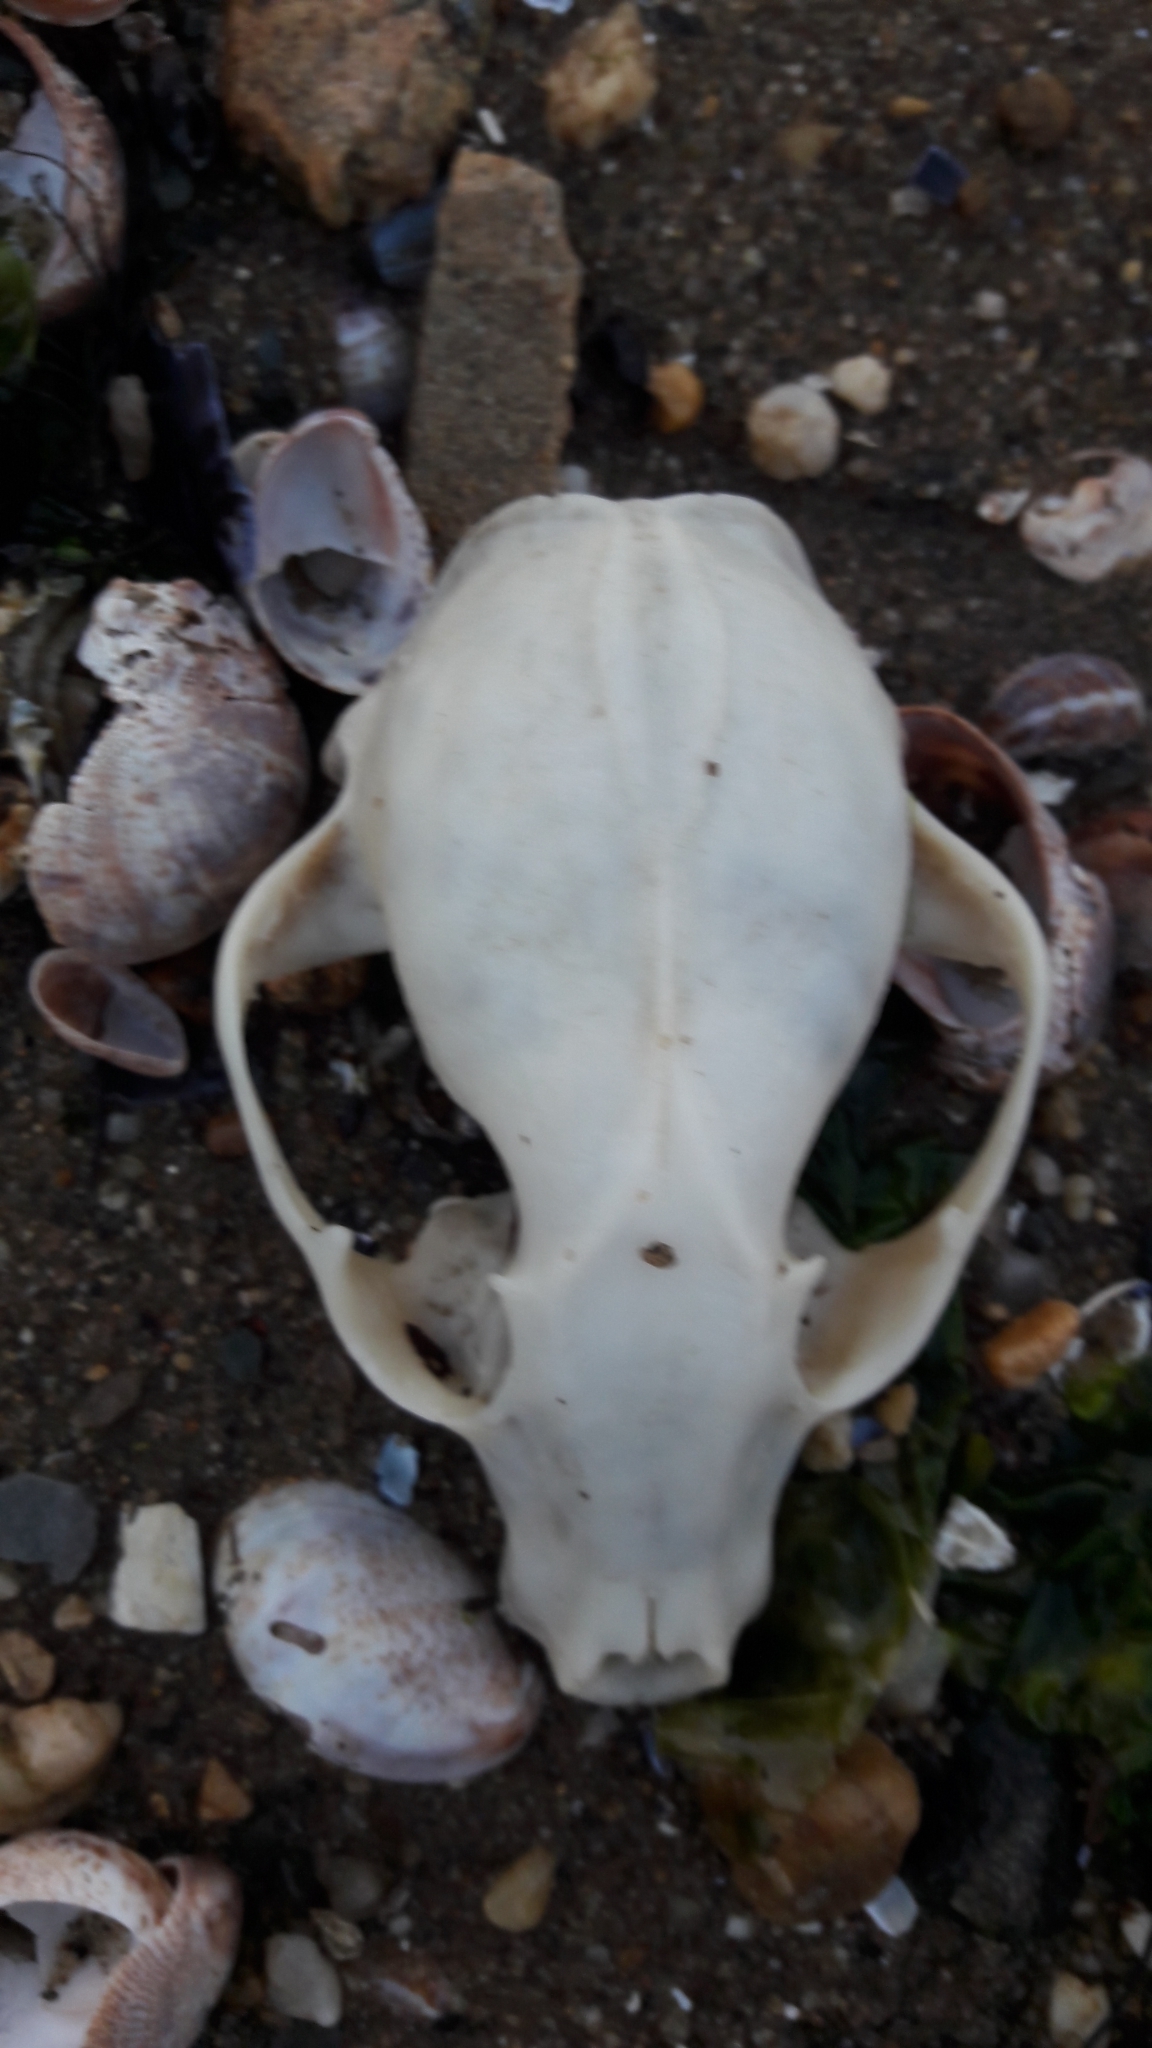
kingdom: Animalia
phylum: Chordata
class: Mammalia
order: Carnivora
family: Procyonidae
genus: Procyon
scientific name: Procyon lotor
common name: Raccoon
